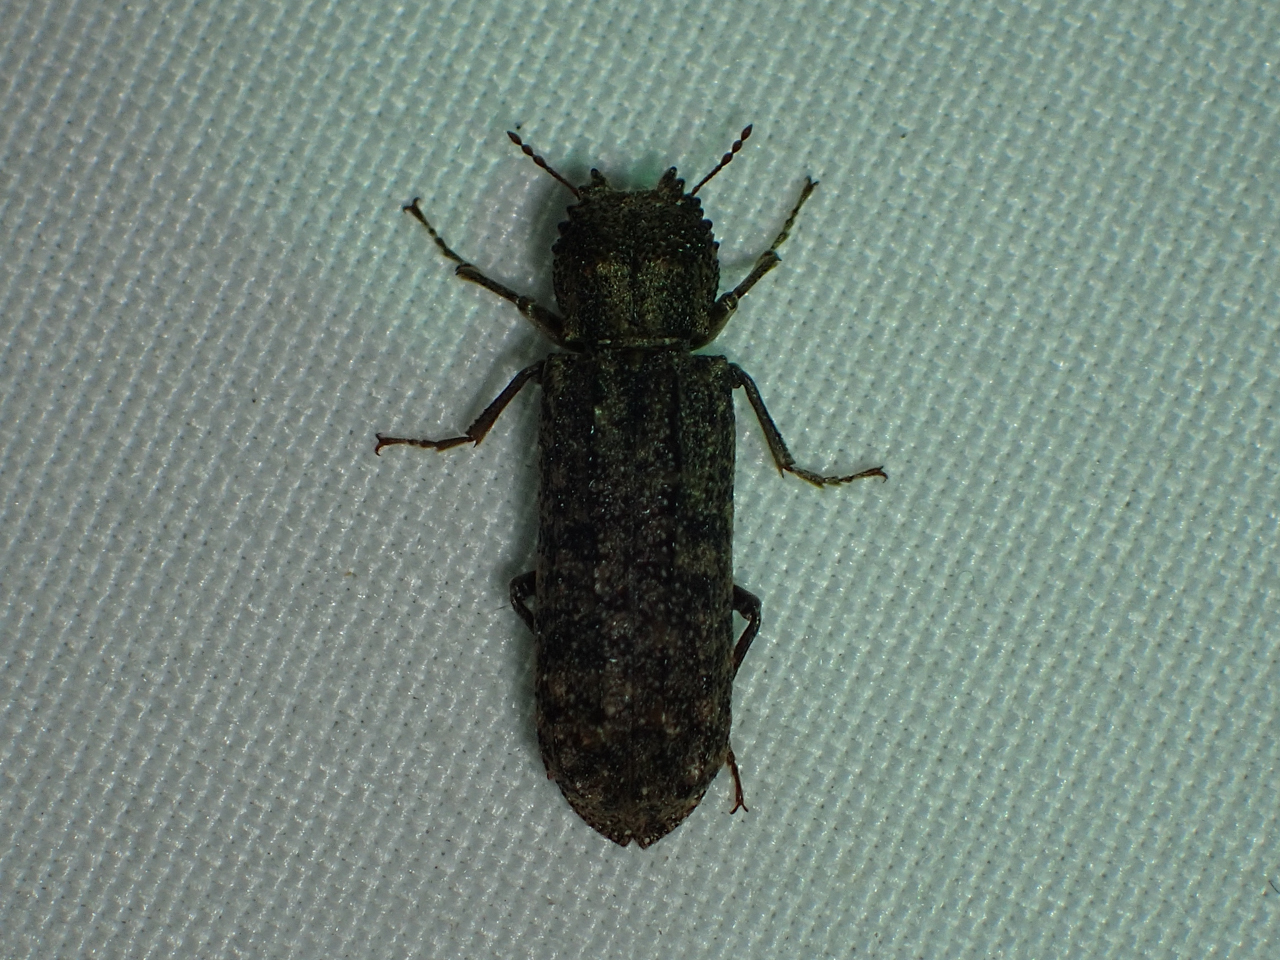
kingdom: Animalia
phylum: Arthropoda
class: Insecta
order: Coleoptera
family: Bostrichidae
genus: Lichenophanes
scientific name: Lichenophanes bicornis
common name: Two-horned powder-post beetle
